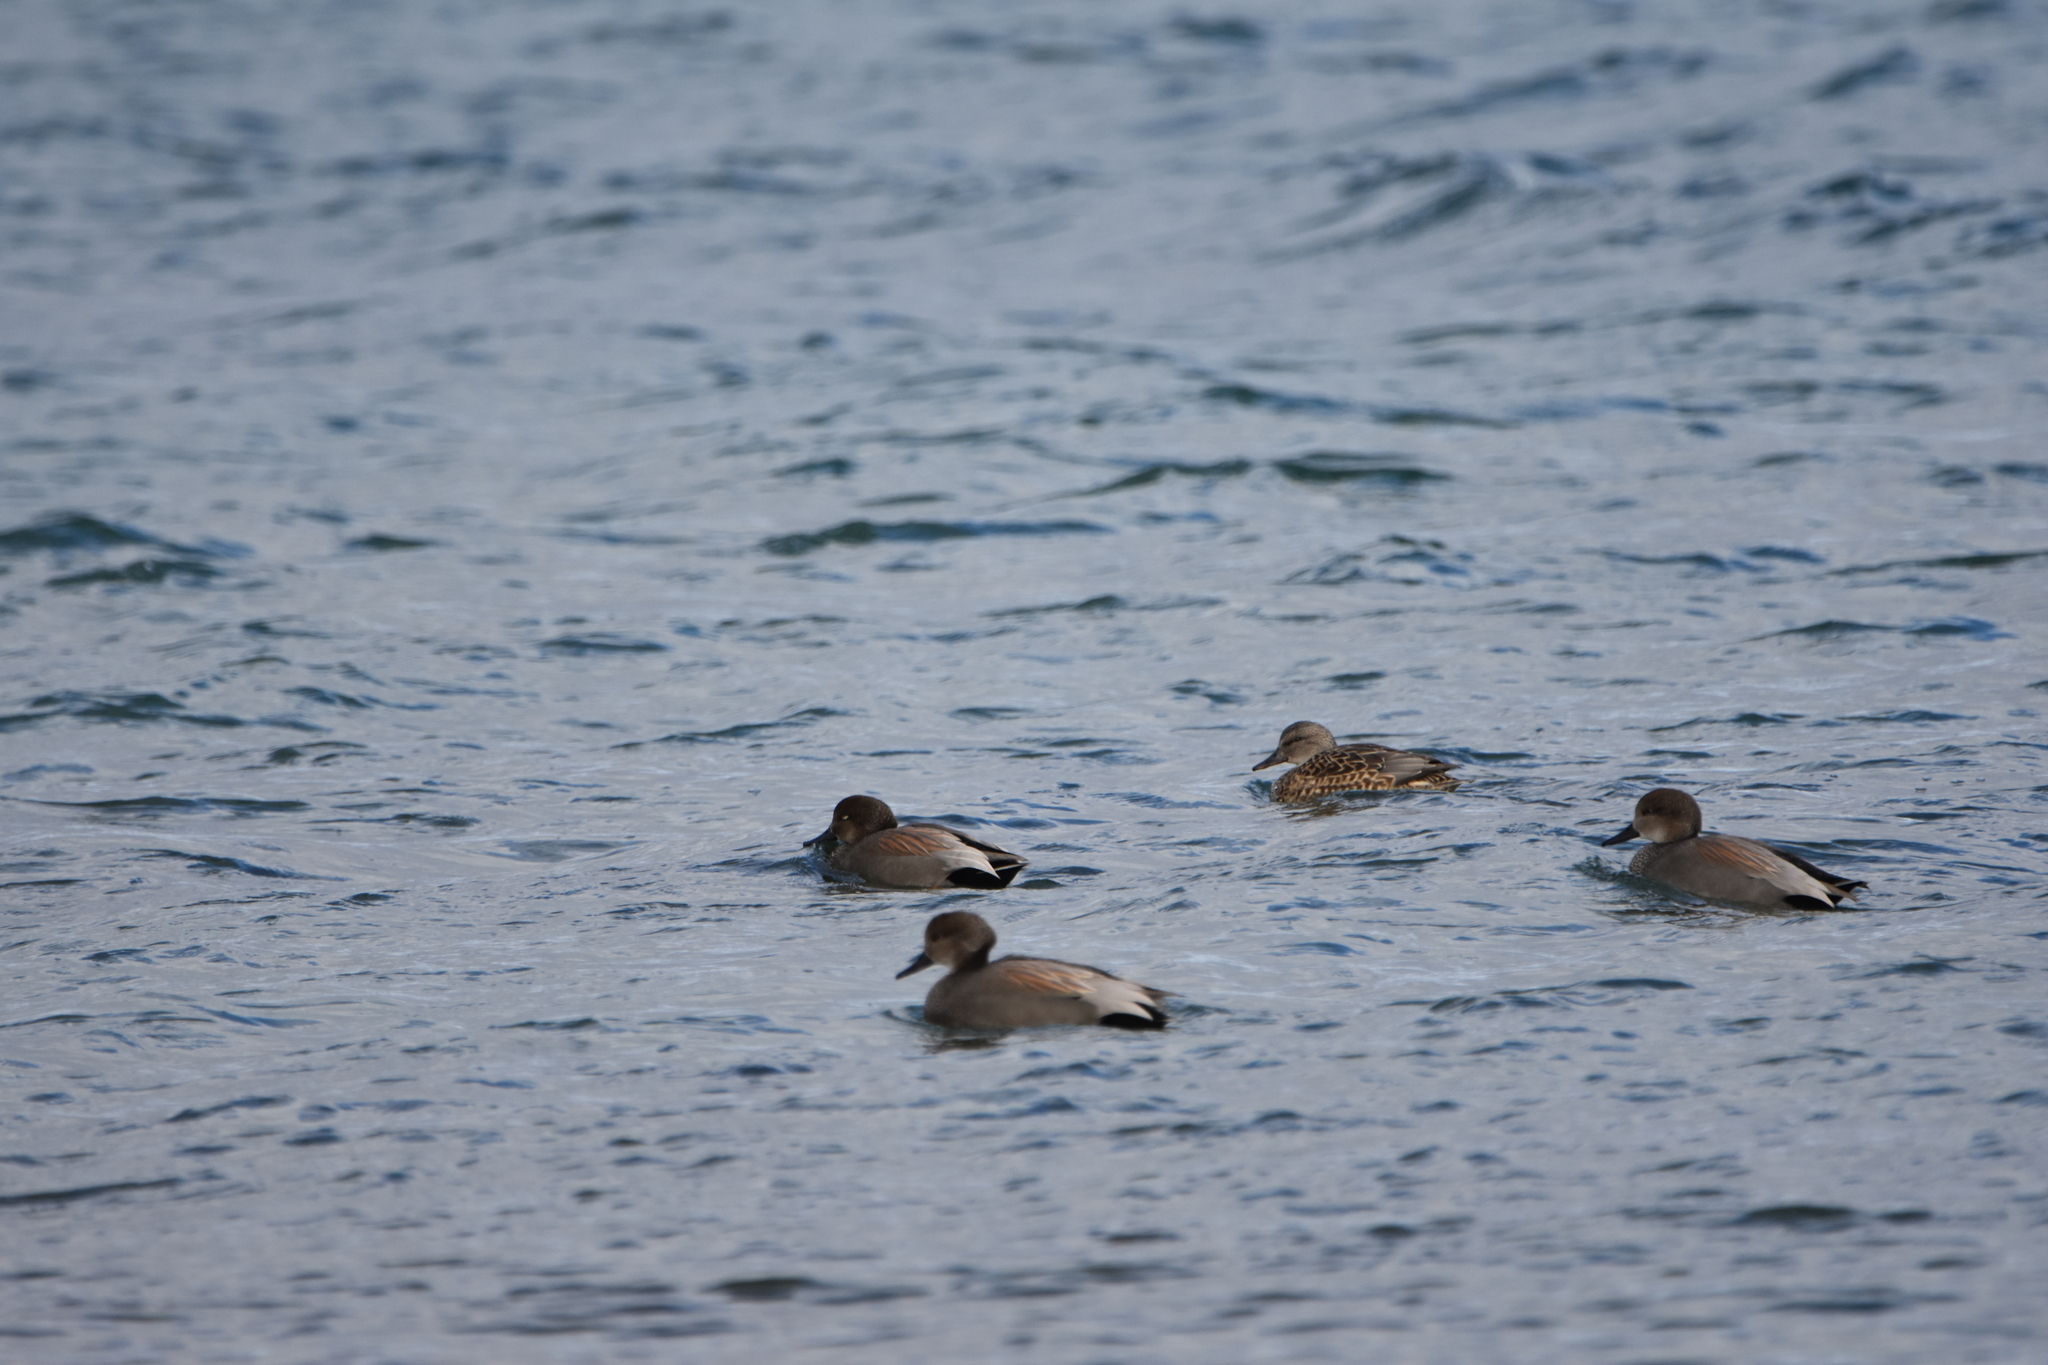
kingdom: Animalia
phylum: Chordata
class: Aves
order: Anseriformes
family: Anatidae
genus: Mareca
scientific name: Mareca strepera
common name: Gadwall
